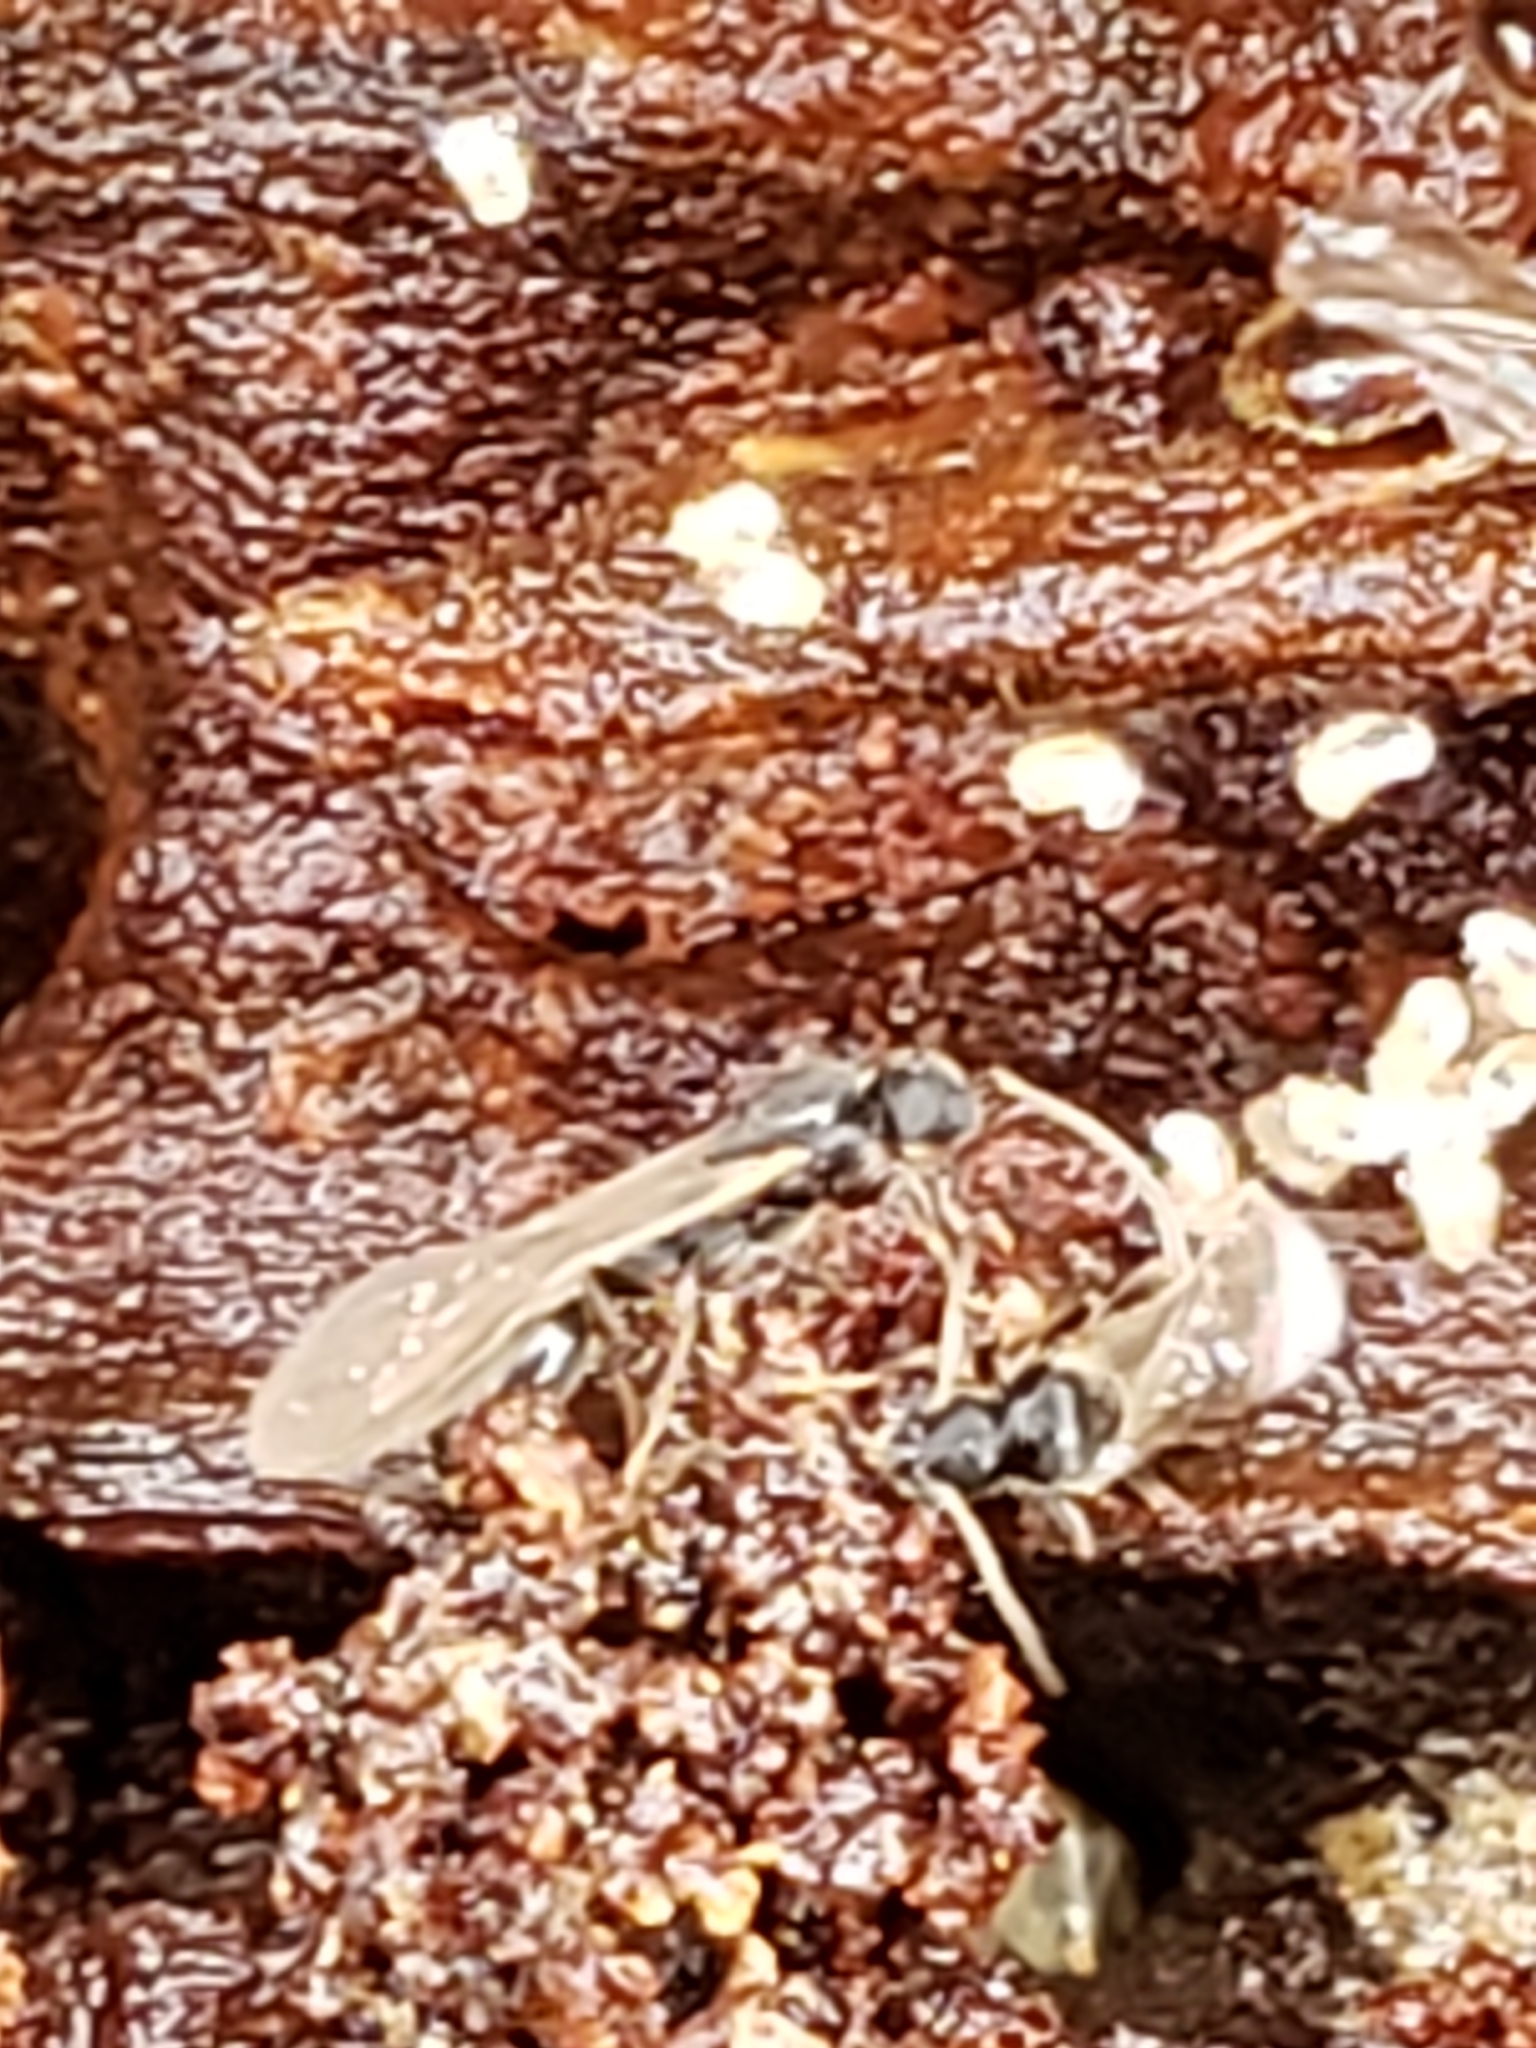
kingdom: Animalia
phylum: Arthropoda
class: Insecta
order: Hymenoptera
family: Formicidae
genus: Vollenhovia
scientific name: Vollenhovia emeryi
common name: Ant
